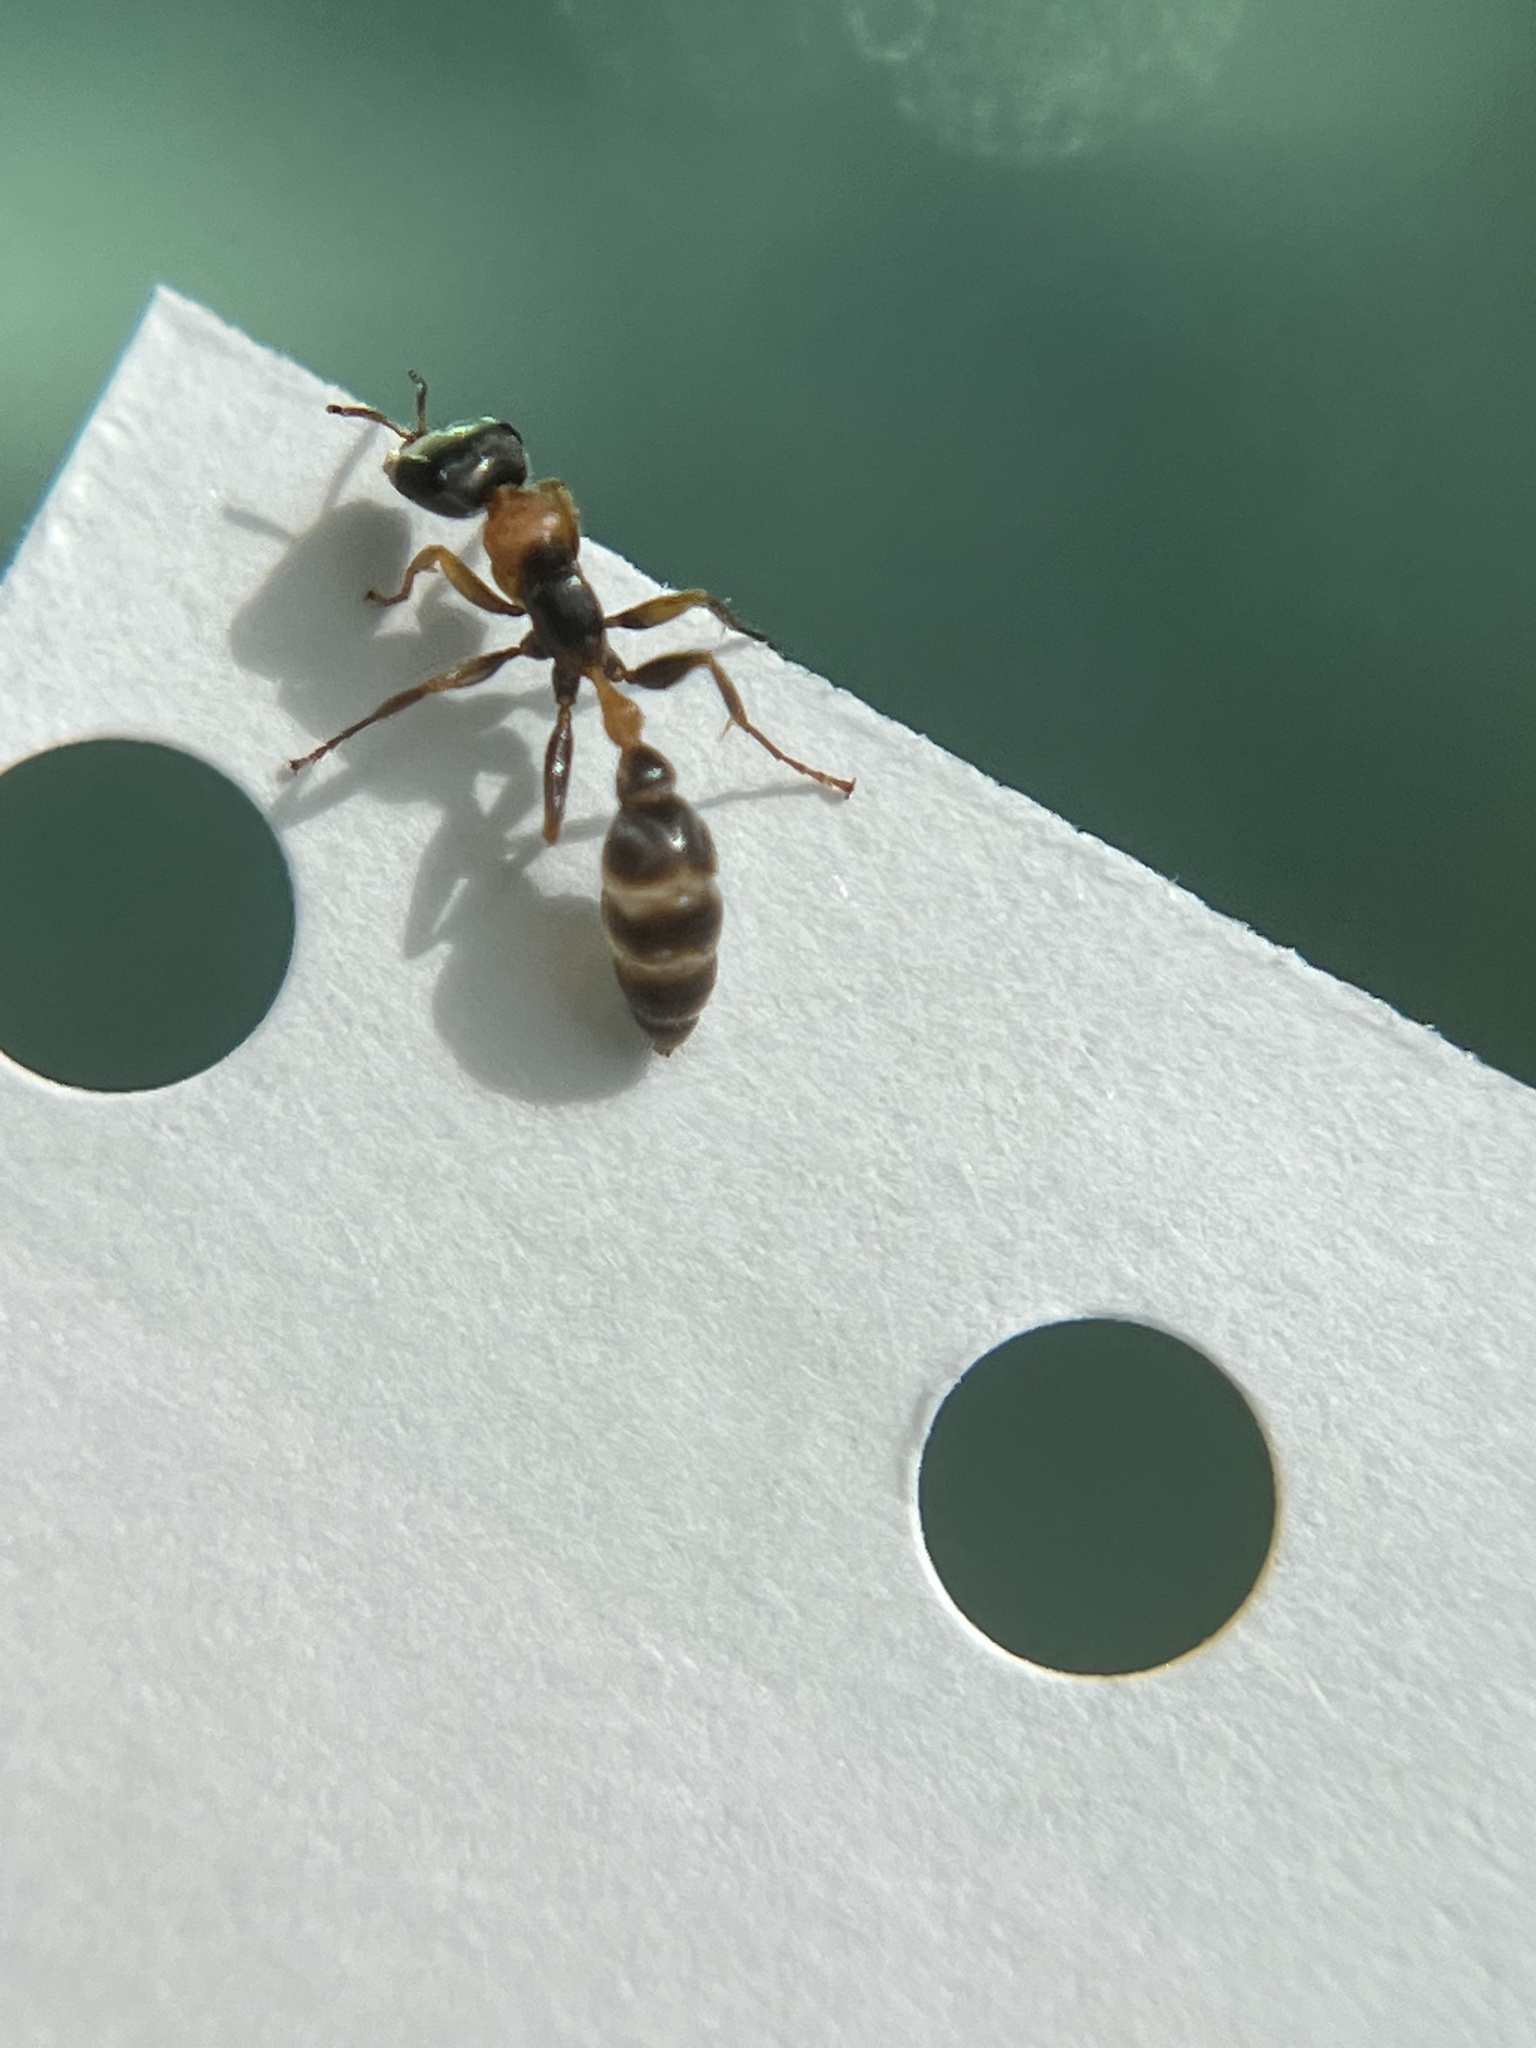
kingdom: Animalia
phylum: Arthropoda
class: Insecta
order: Hymenoptera
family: Formicidae
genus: Pseudomyrmex
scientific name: Pseudomyrmex gracilis
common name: Graceful twig ant
